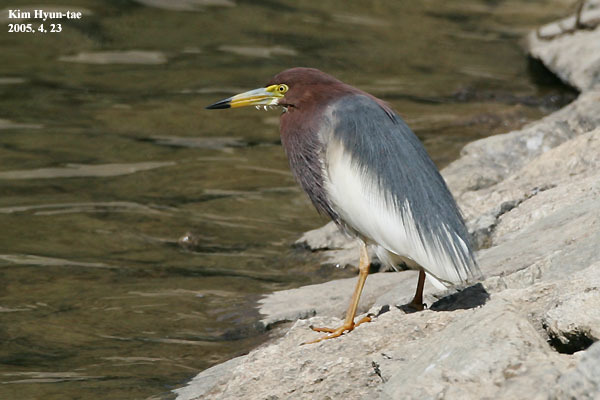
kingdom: Animalia
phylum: Chordata
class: Aves
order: Pelecaniformes
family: Ardeidae
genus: Ardeola
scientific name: Ardeola bacchus
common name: Chinese pond heron
